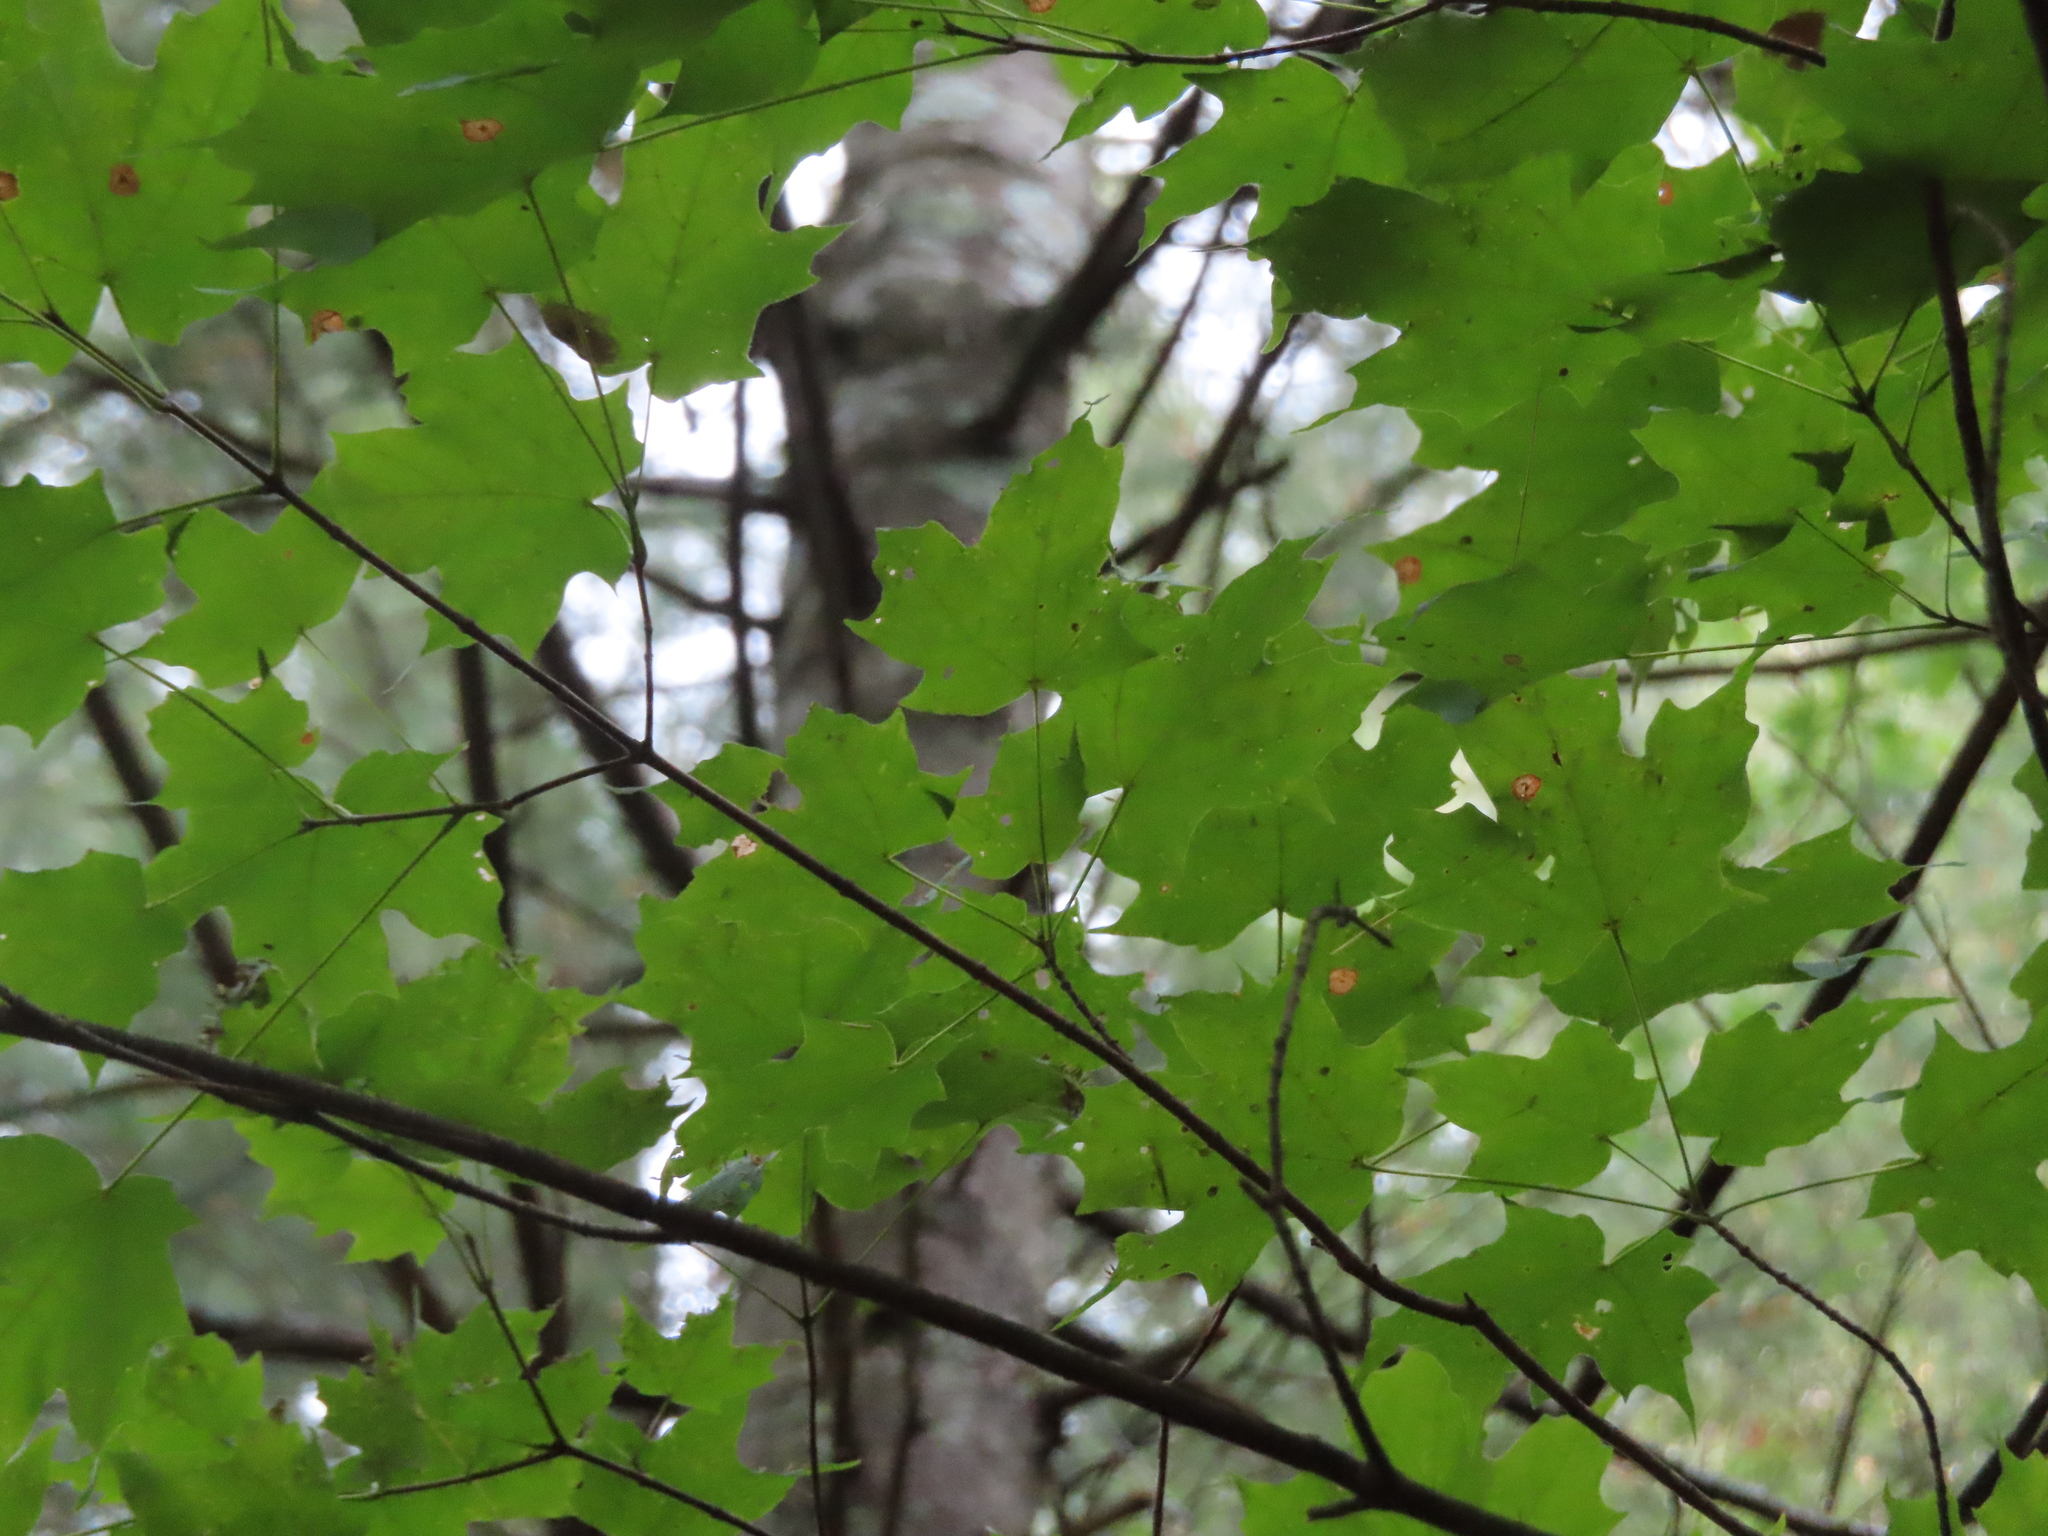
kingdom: Animalia
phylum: Arthropoda
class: Insecta
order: Diptera
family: Cecidomyiidae
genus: Acericecis
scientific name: Acericecis ocellaris
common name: Ocellate gall midge
